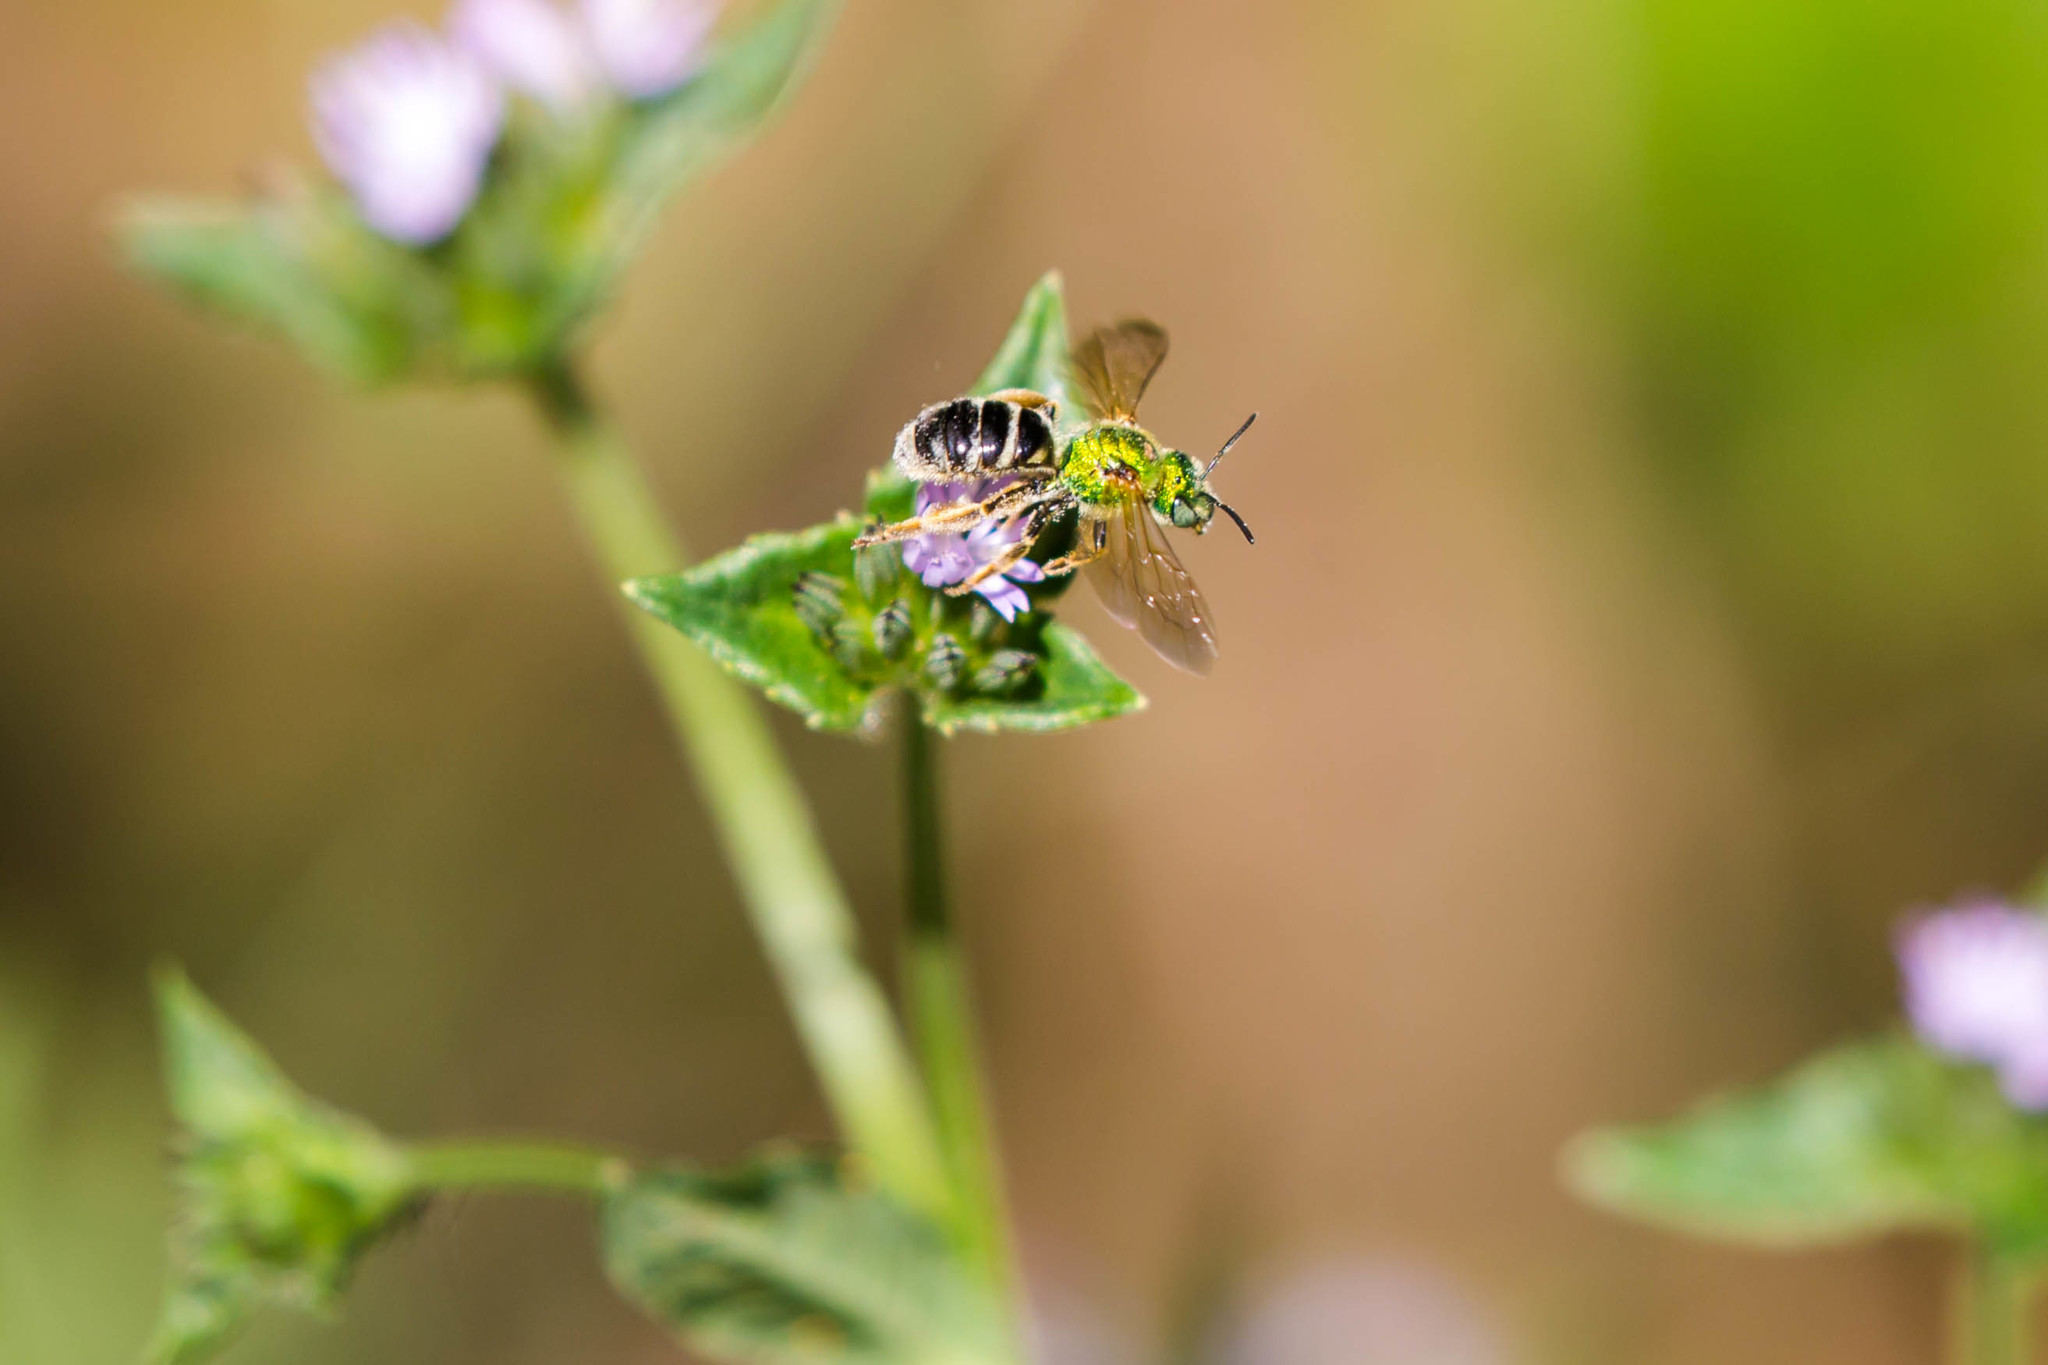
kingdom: Animalia
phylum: Arthropoda
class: Insecta
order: Hymenoptera
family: Halictidae
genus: Agapostemon
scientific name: Agapostemon virescens
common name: Bicolored striped sweat bee
